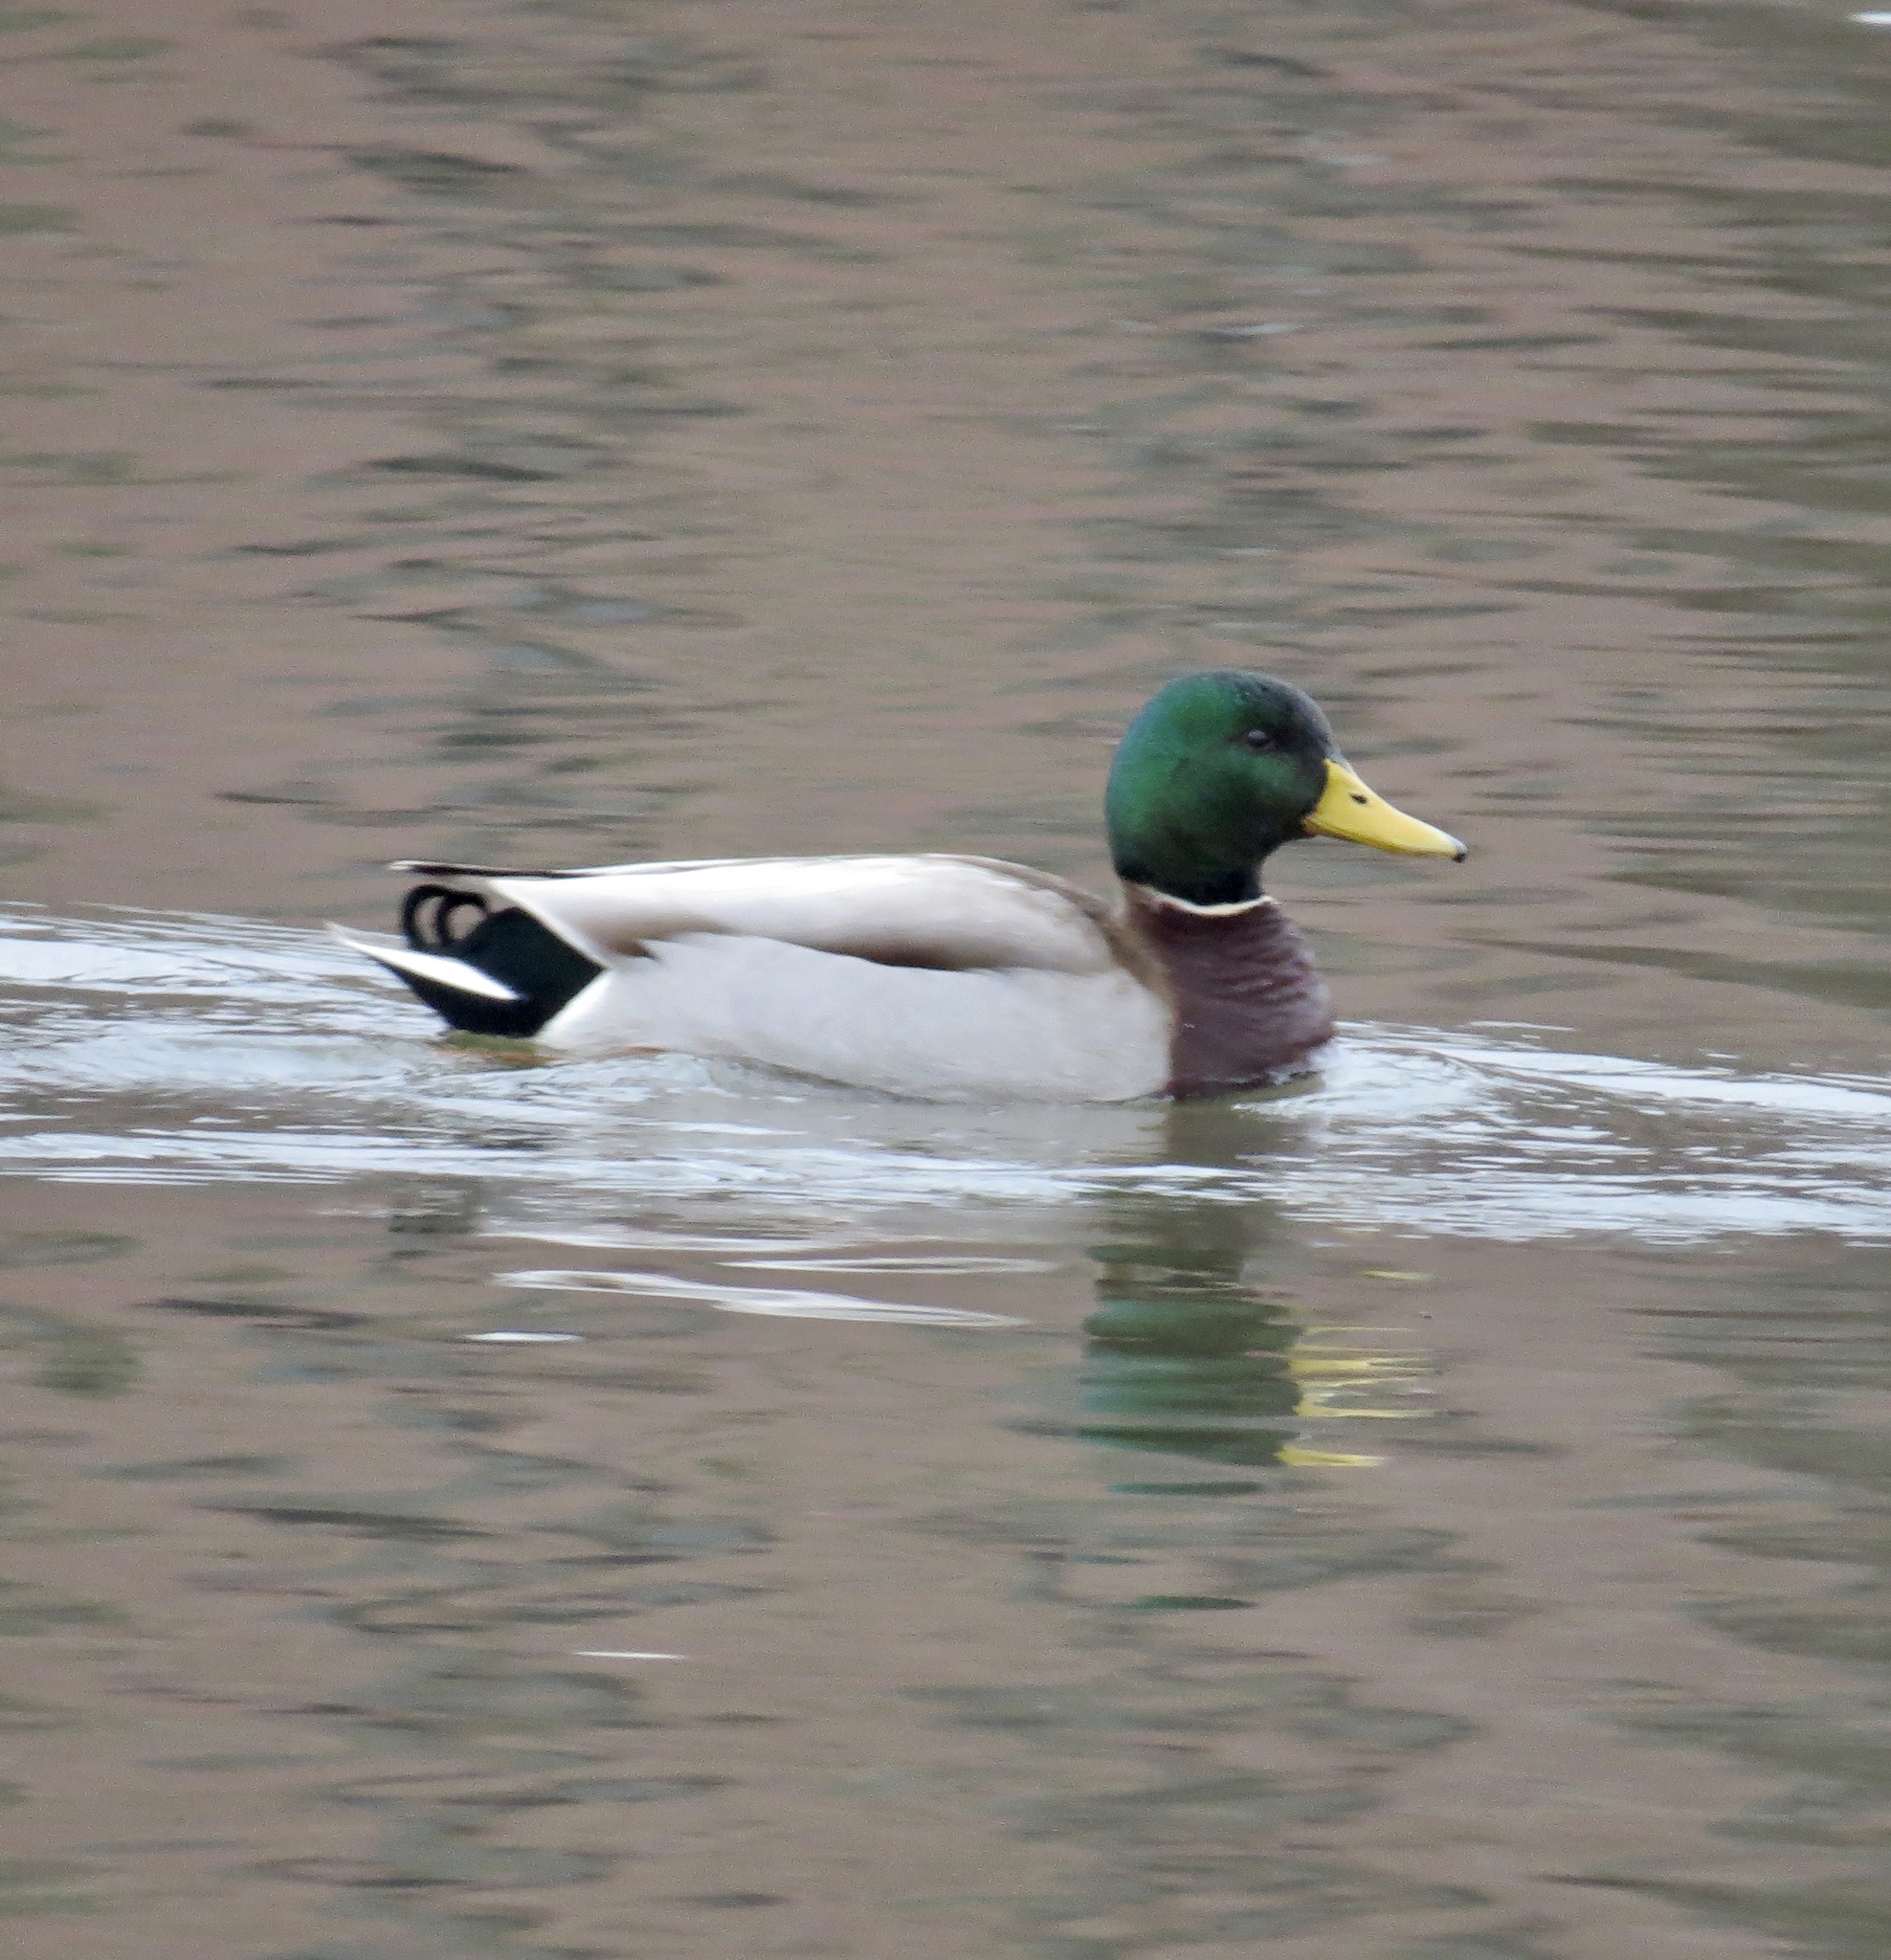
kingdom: Animalia
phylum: Chordata
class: Aves
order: Anseriformes
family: Anatidae
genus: Anas
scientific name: Anas platyrhynchos
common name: Mallard
